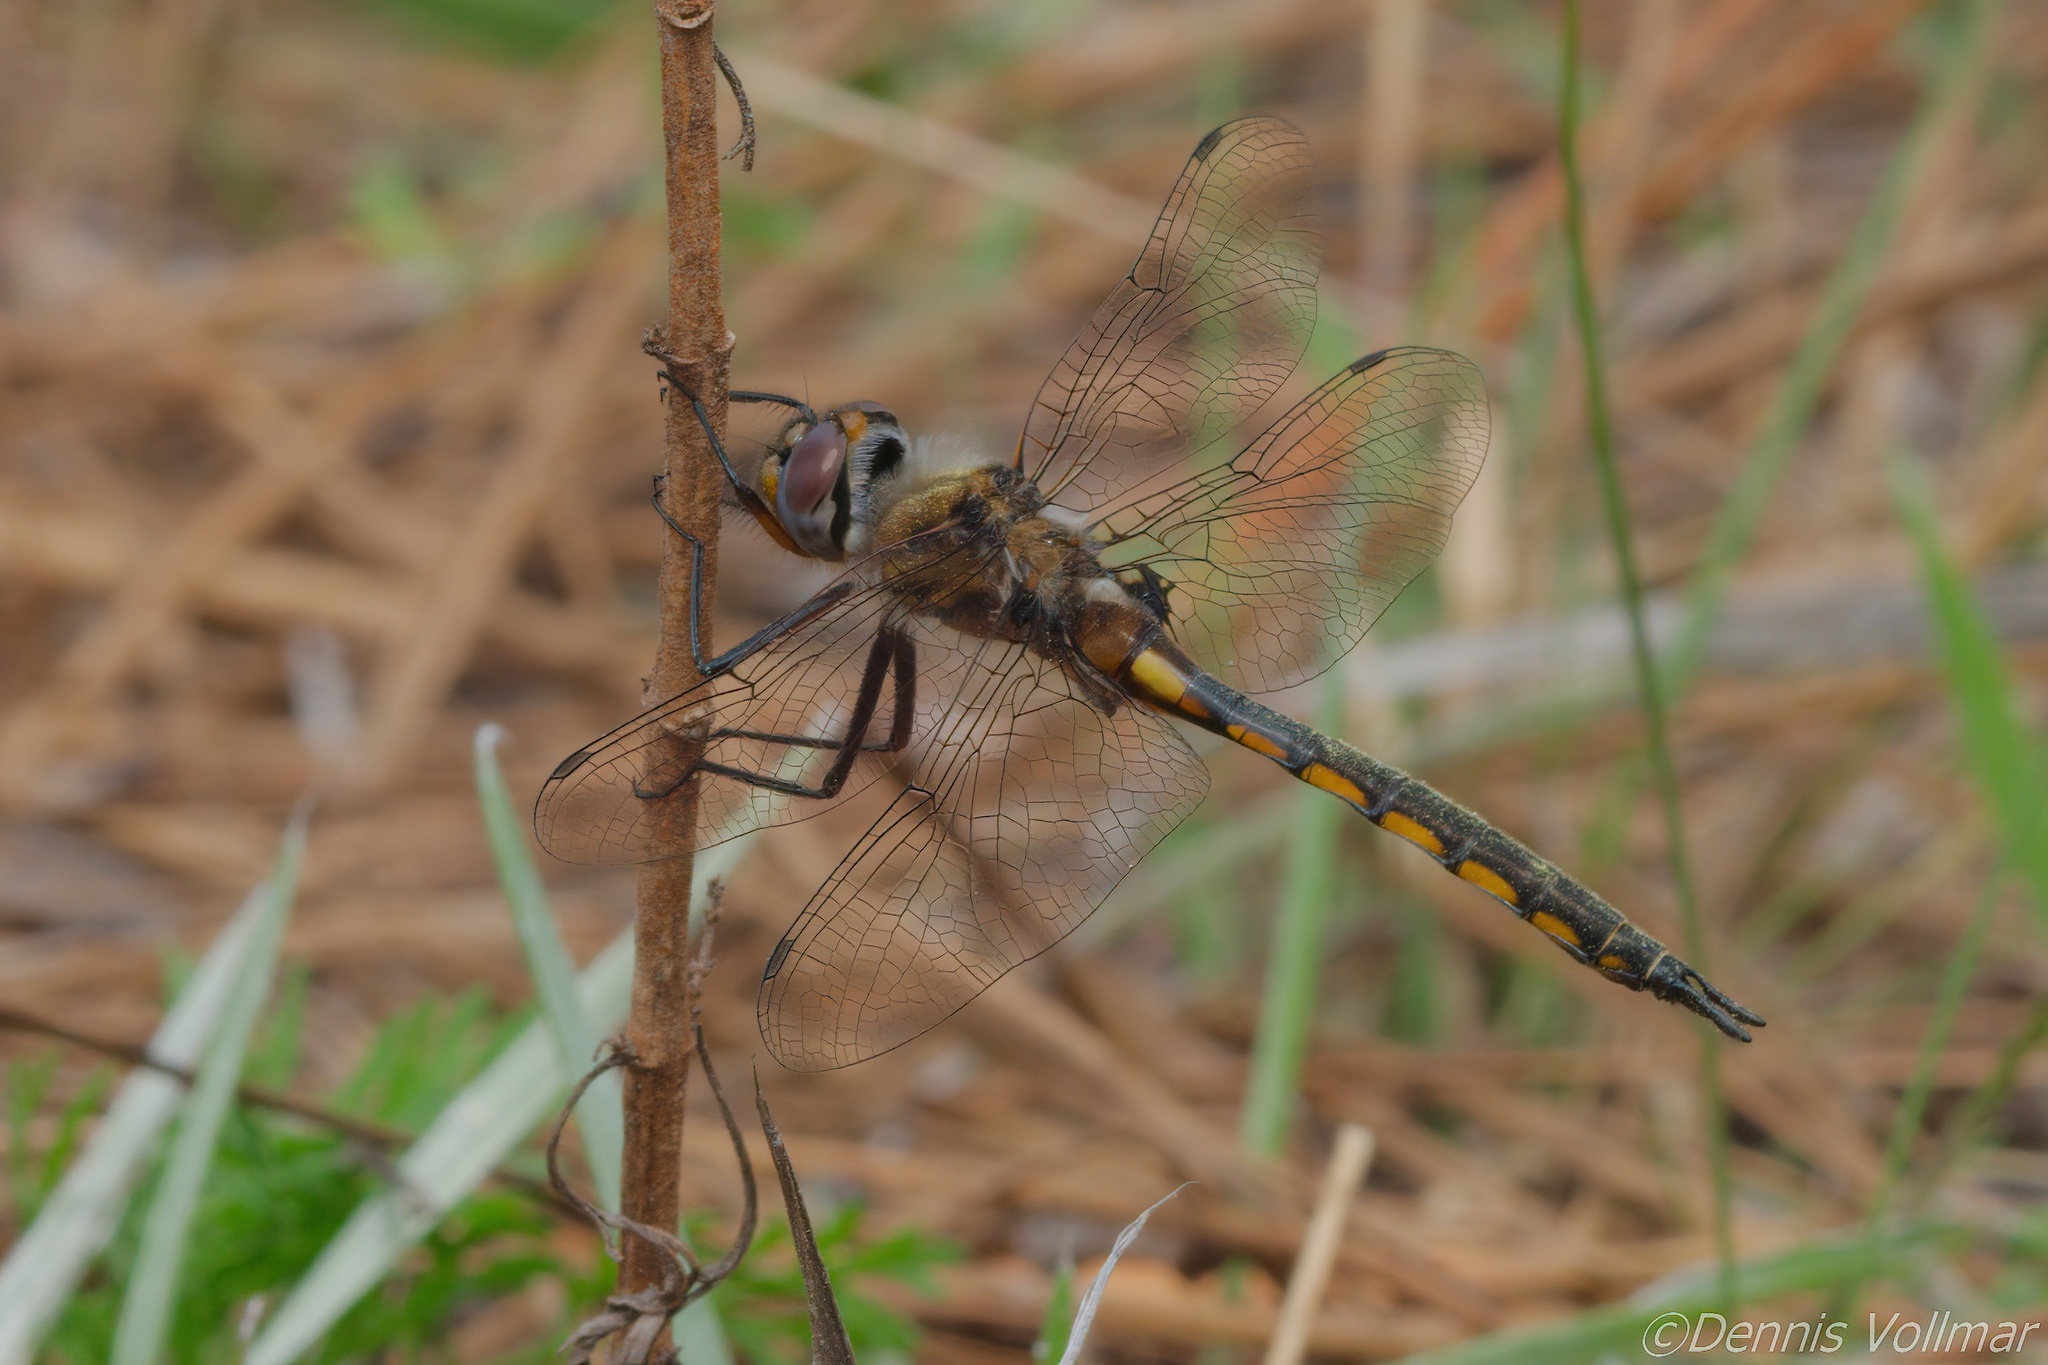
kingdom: Animalia
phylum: Arthropoda
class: Insecta
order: Odonata
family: Corduliidae
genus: Epitheca
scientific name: Epitheca costalis
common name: Slender baskettail
